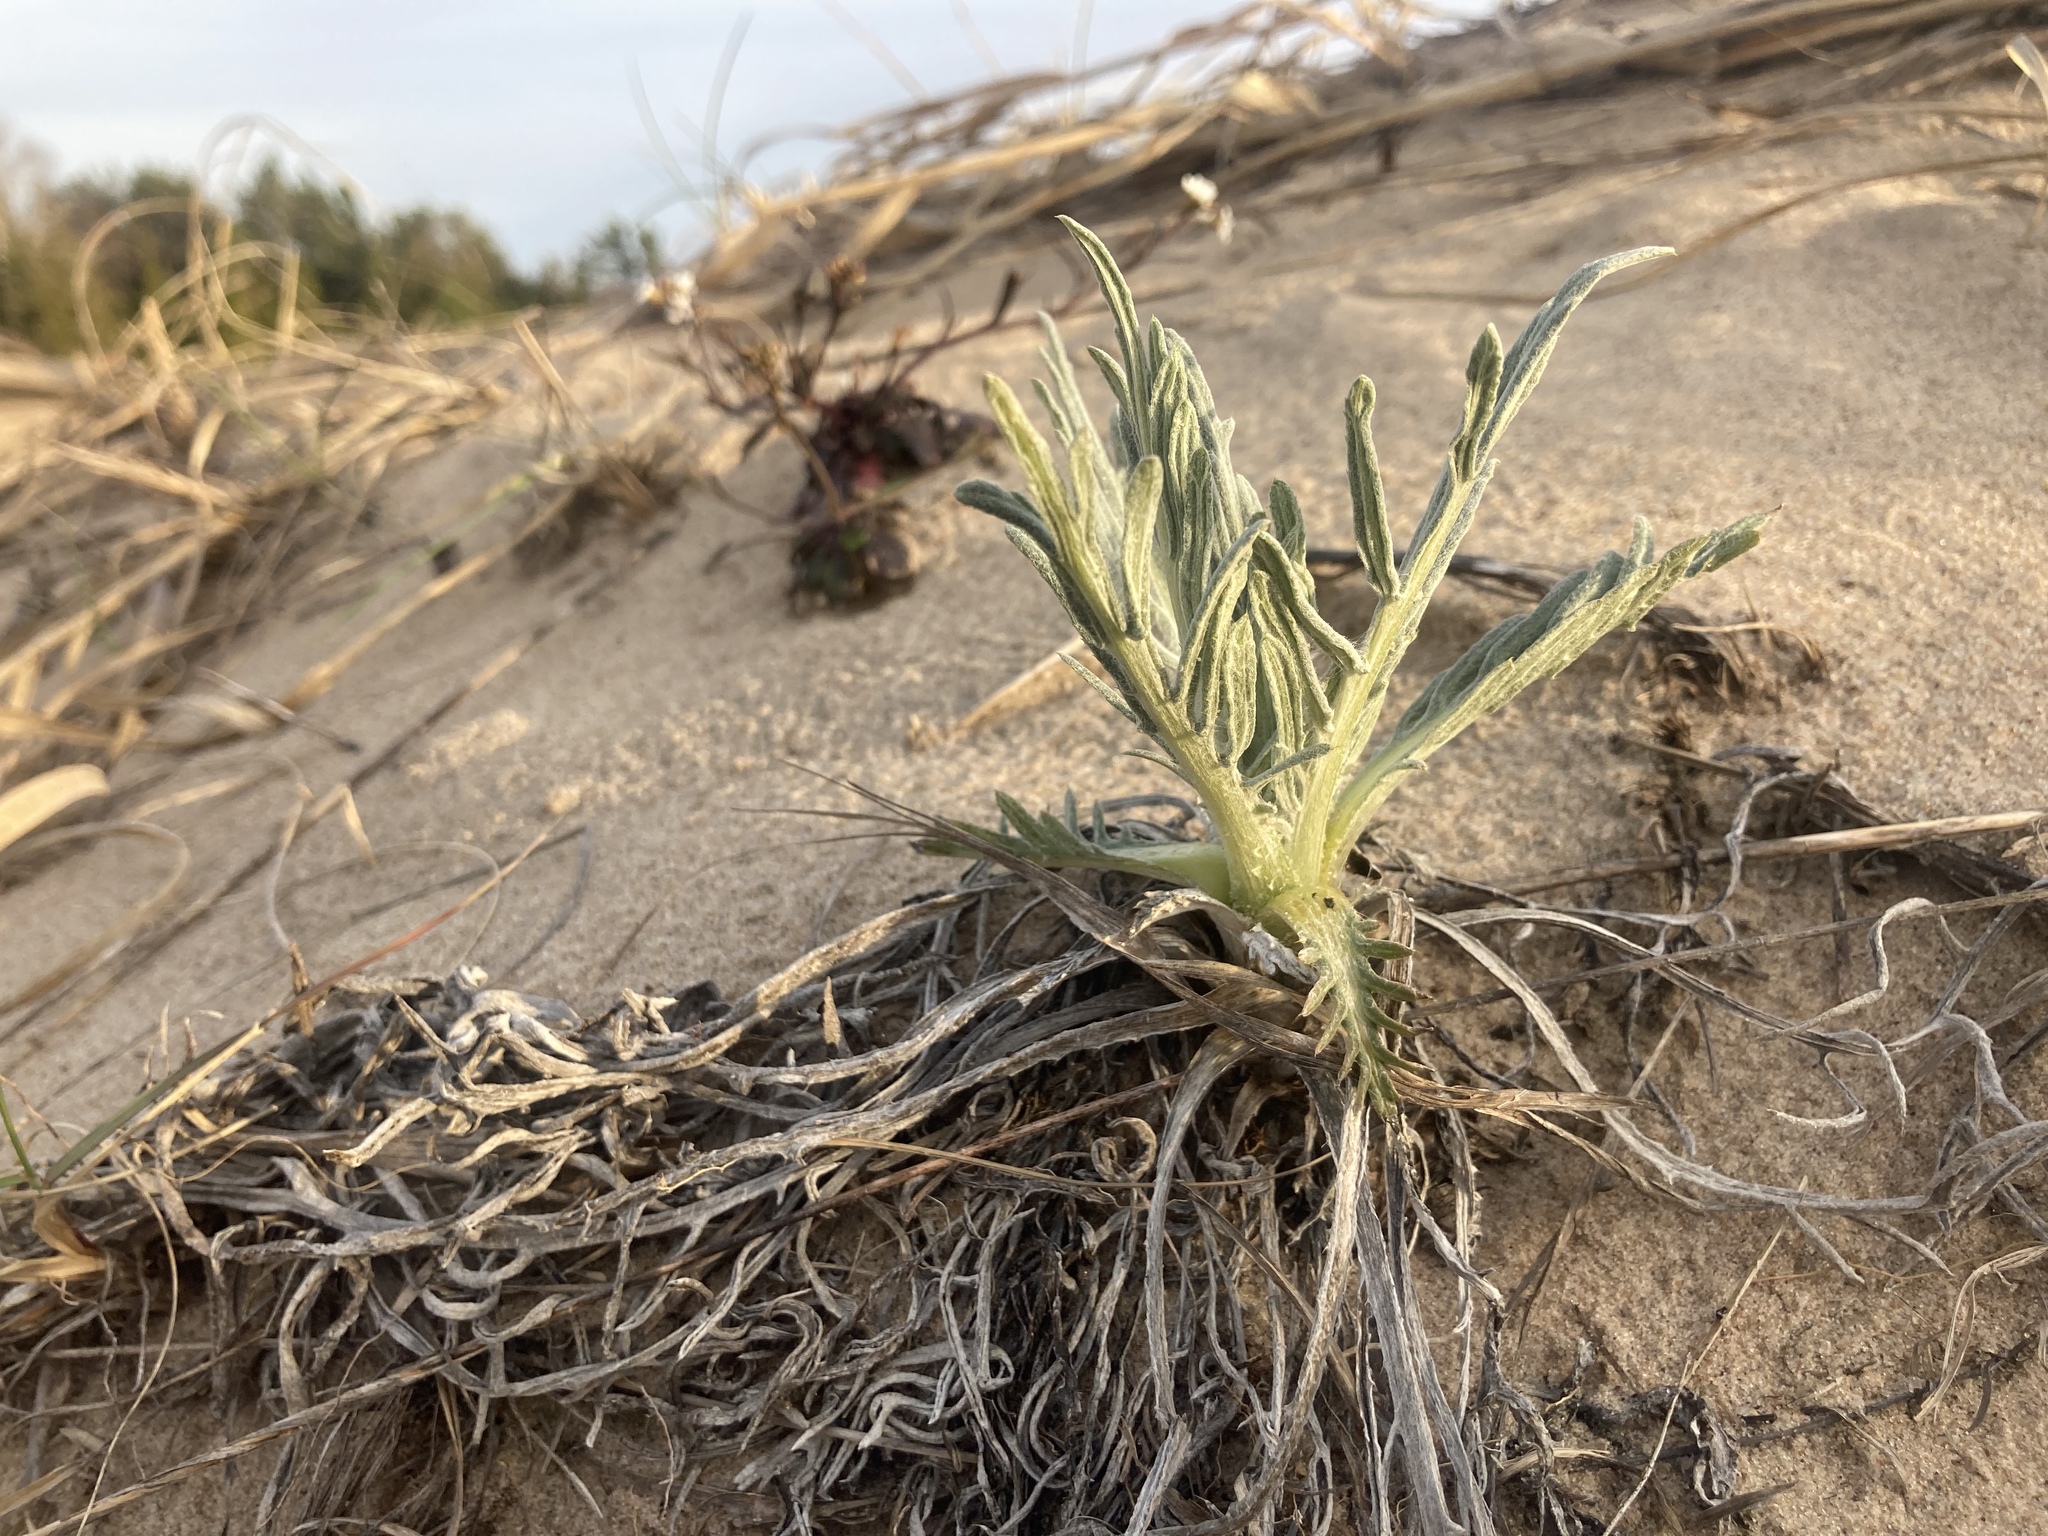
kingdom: Plantae
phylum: Tracheophyta
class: Magnoliopsida
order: Asterales
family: Asteraceae
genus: Cirsium
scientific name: Cirsium pitcheri
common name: Dune thistle
